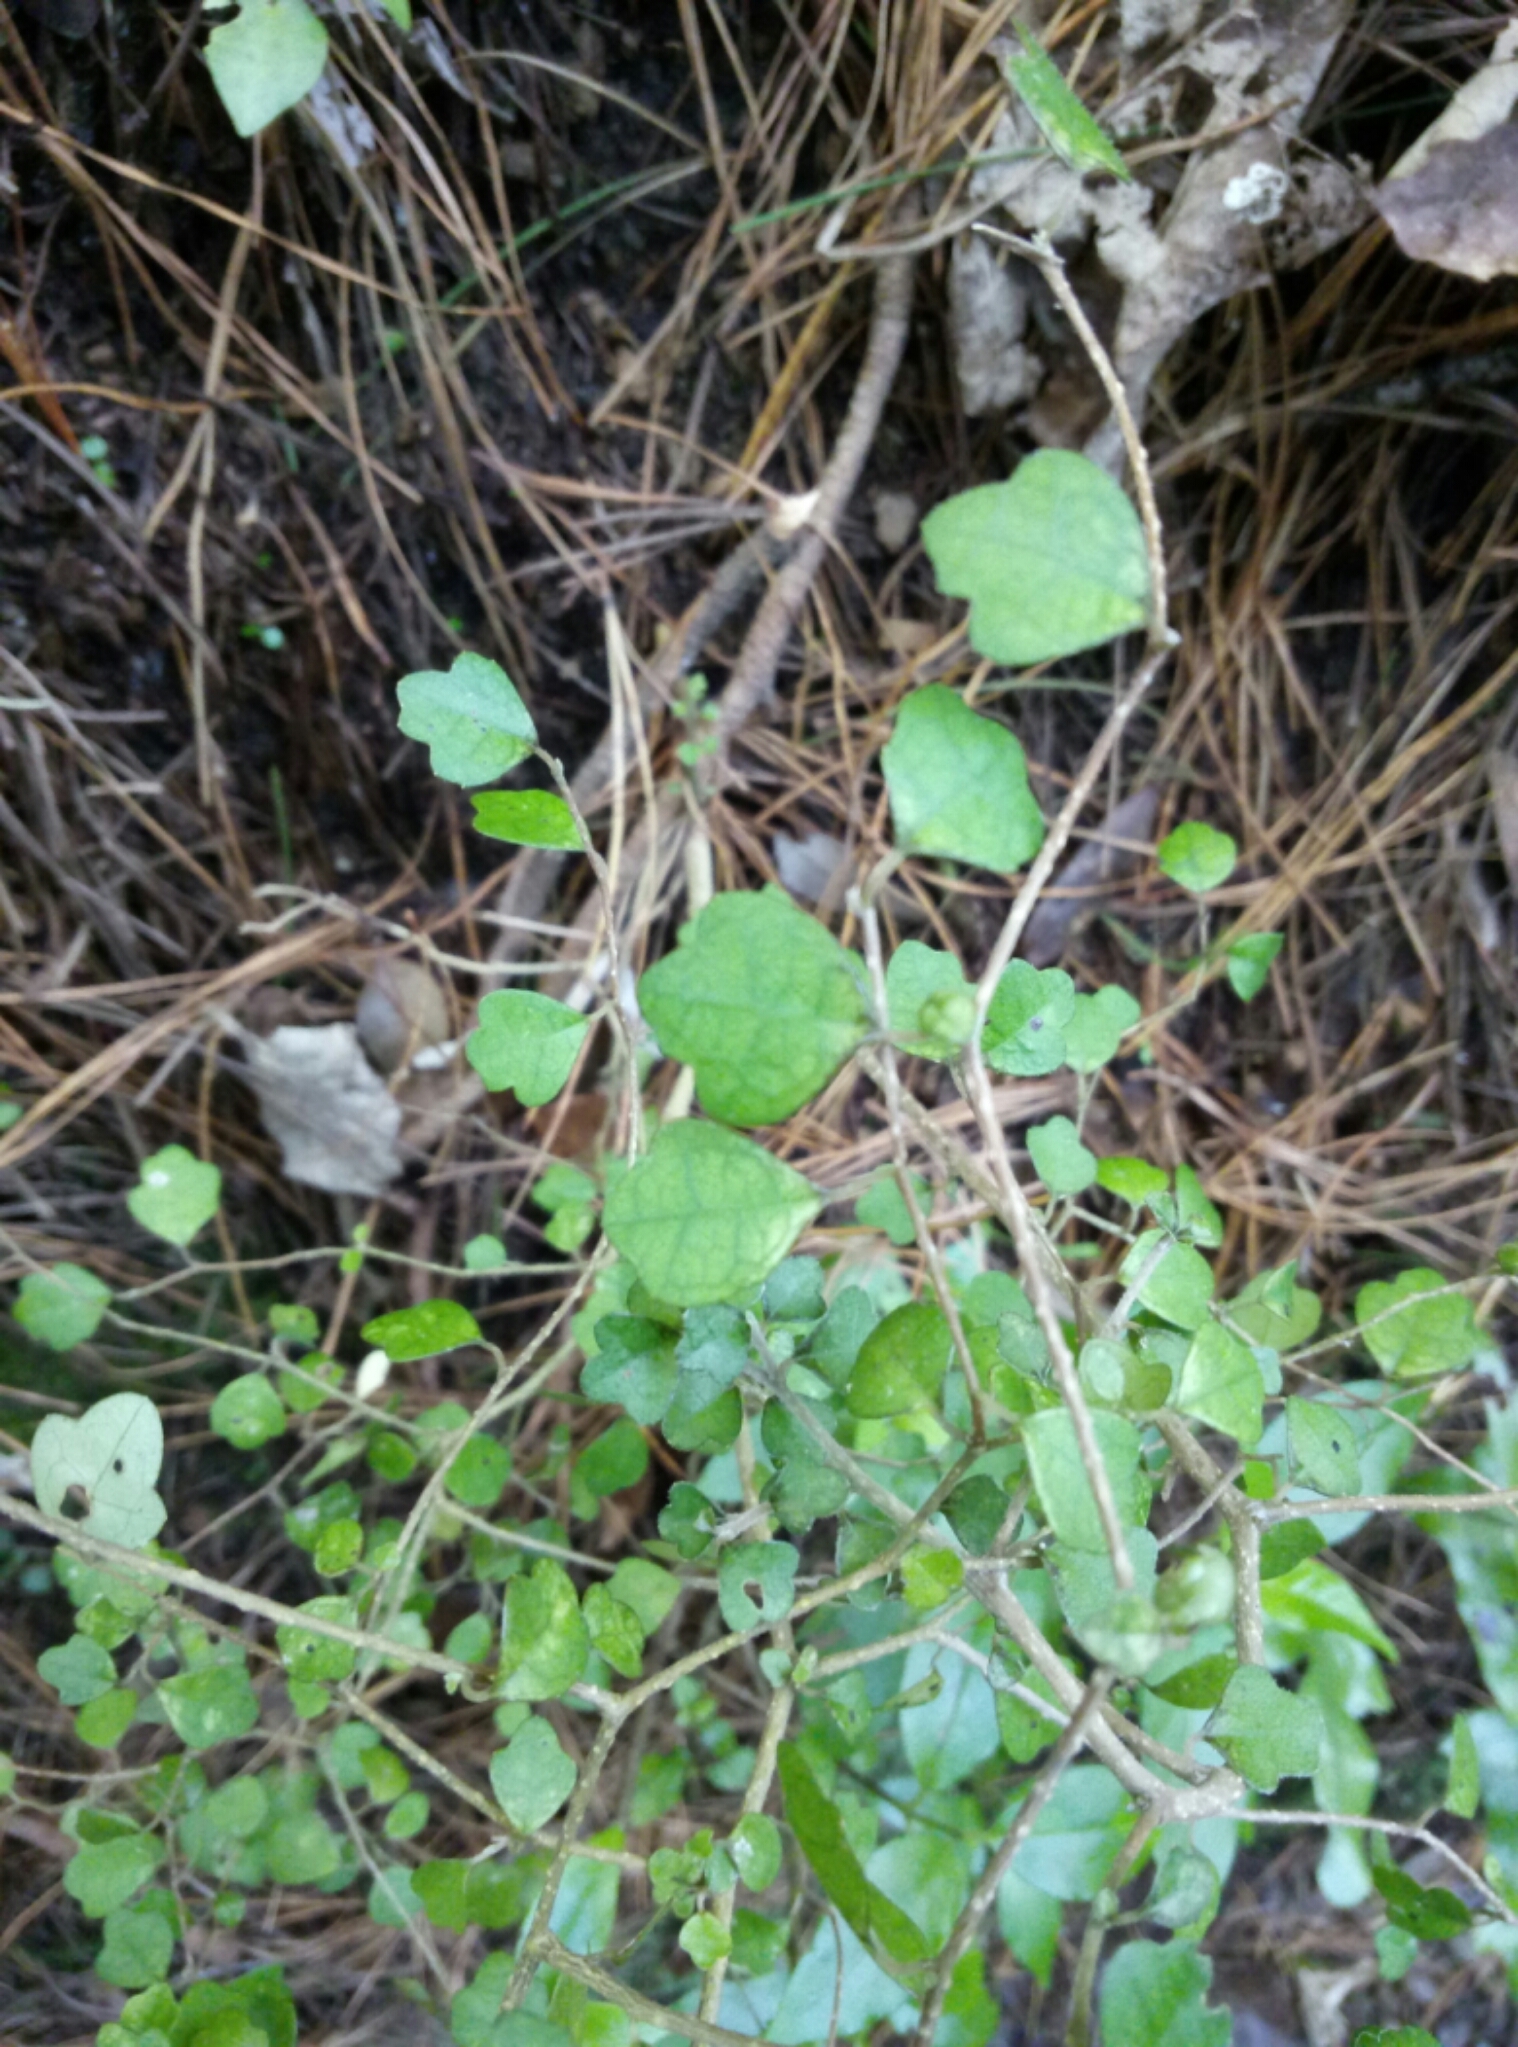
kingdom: Plantae
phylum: Tracheophyta
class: Magnoliopsida
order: Apiales
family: Pennantiaceae
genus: Pennantia
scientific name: Pennantia corymbosa
